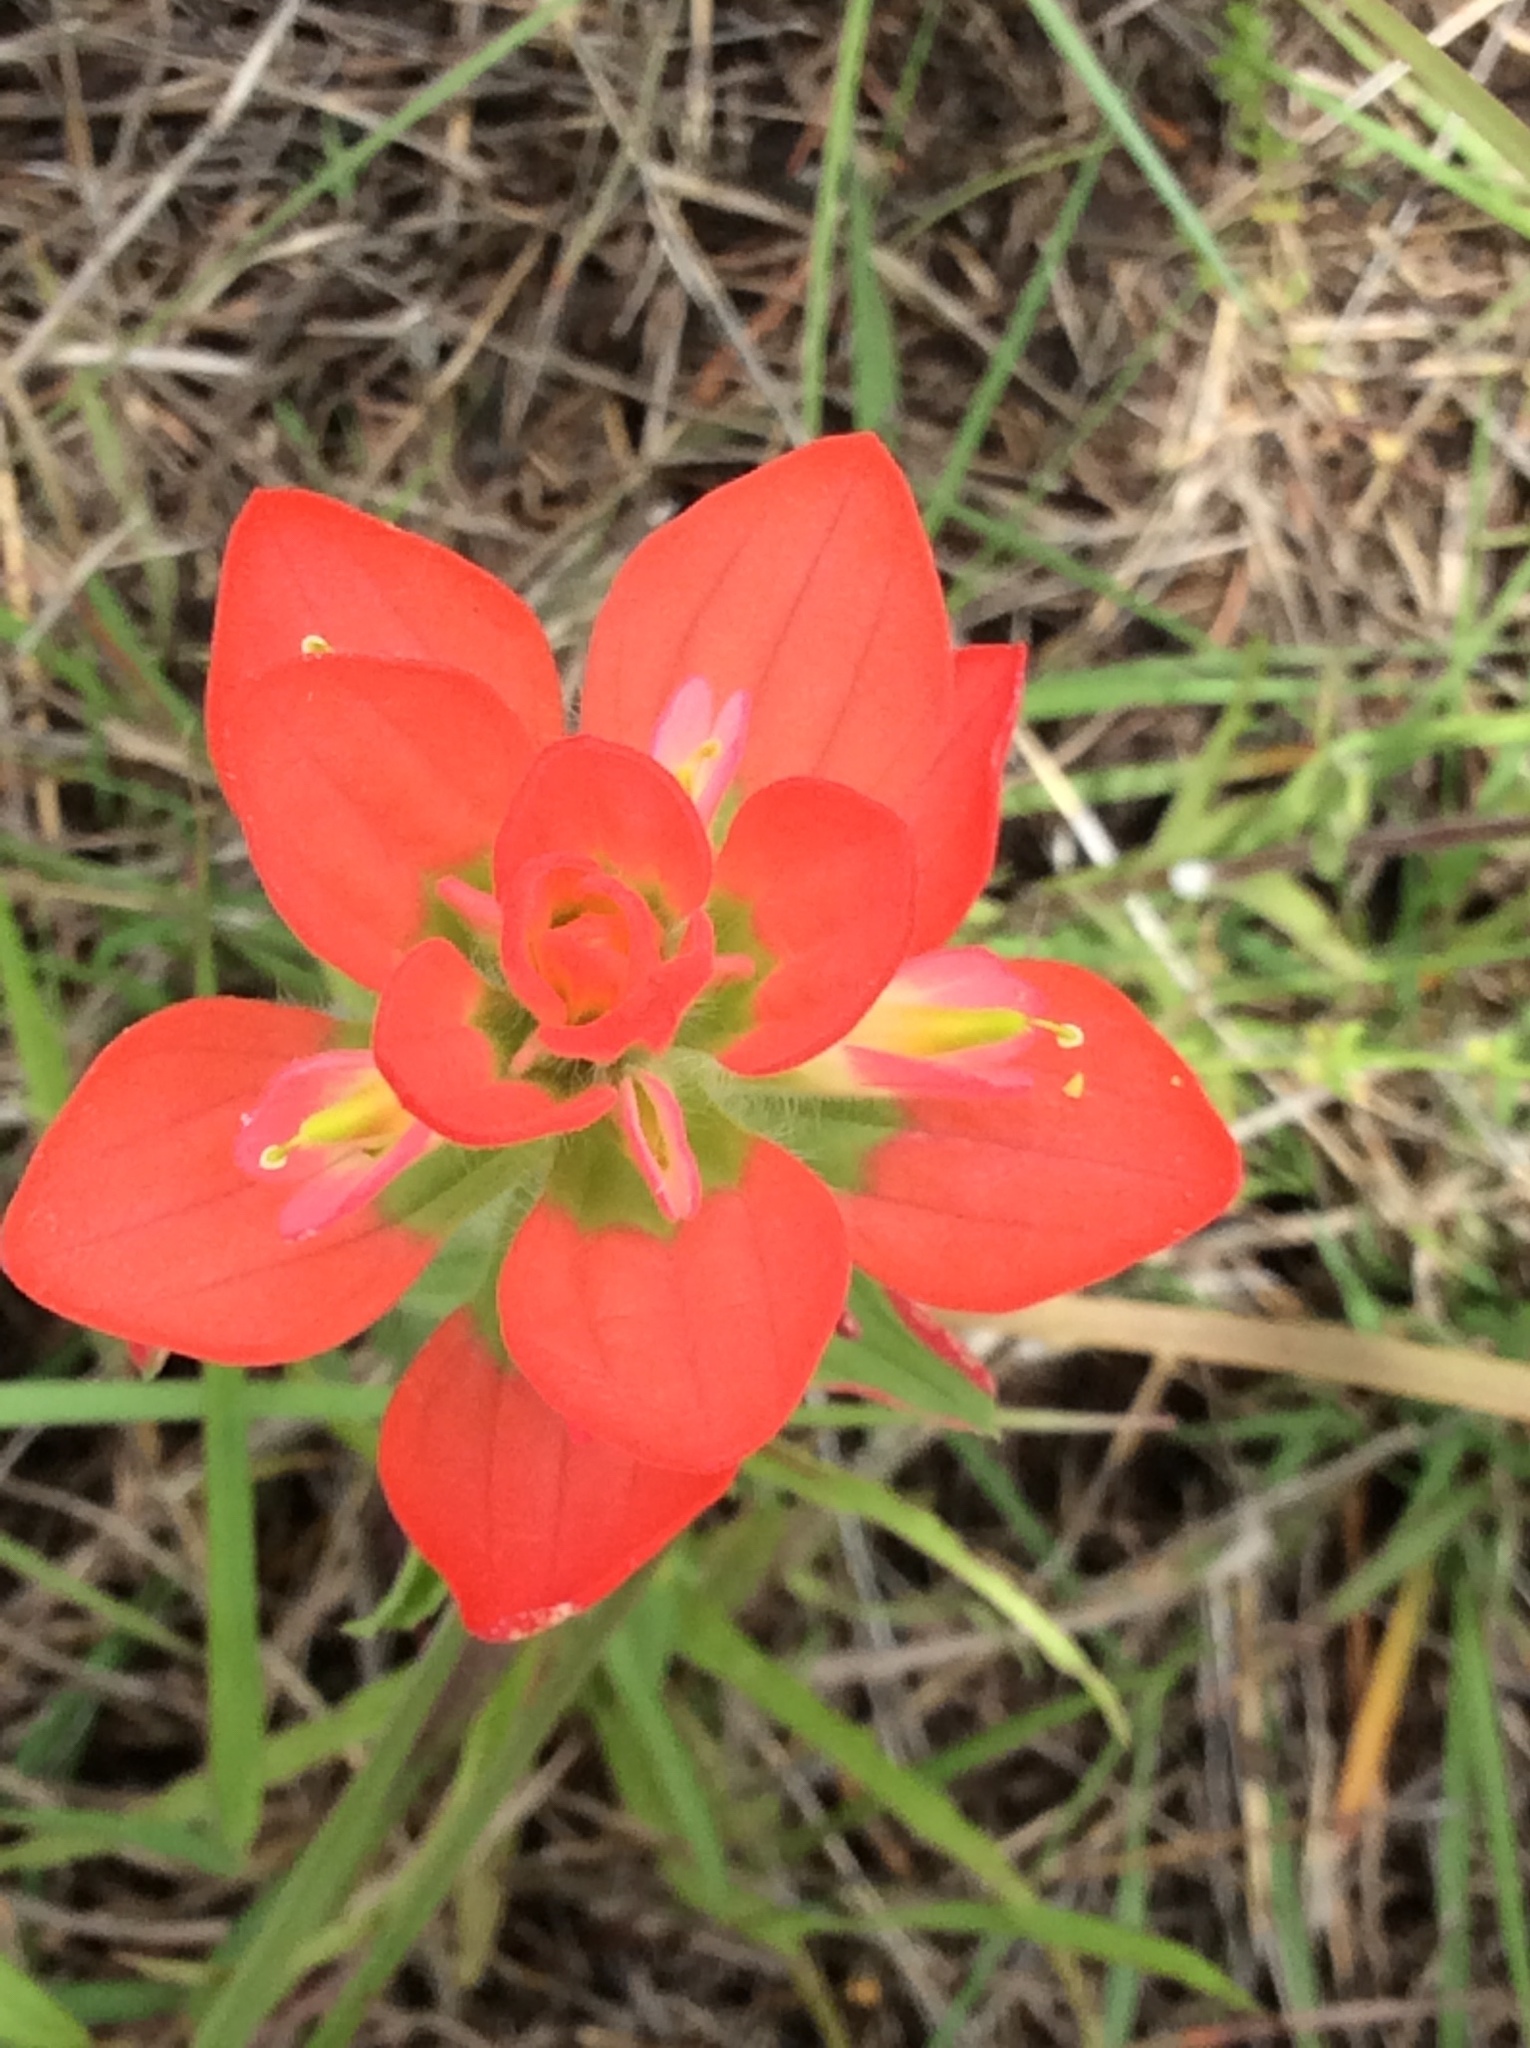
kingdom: Plantae
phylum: Tracheophyta
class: Magnoliopsida
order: Lamiales
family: Orobanchaceae
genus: Castilleja
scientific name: Castilleja indivisa
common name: Texas paintbrush
